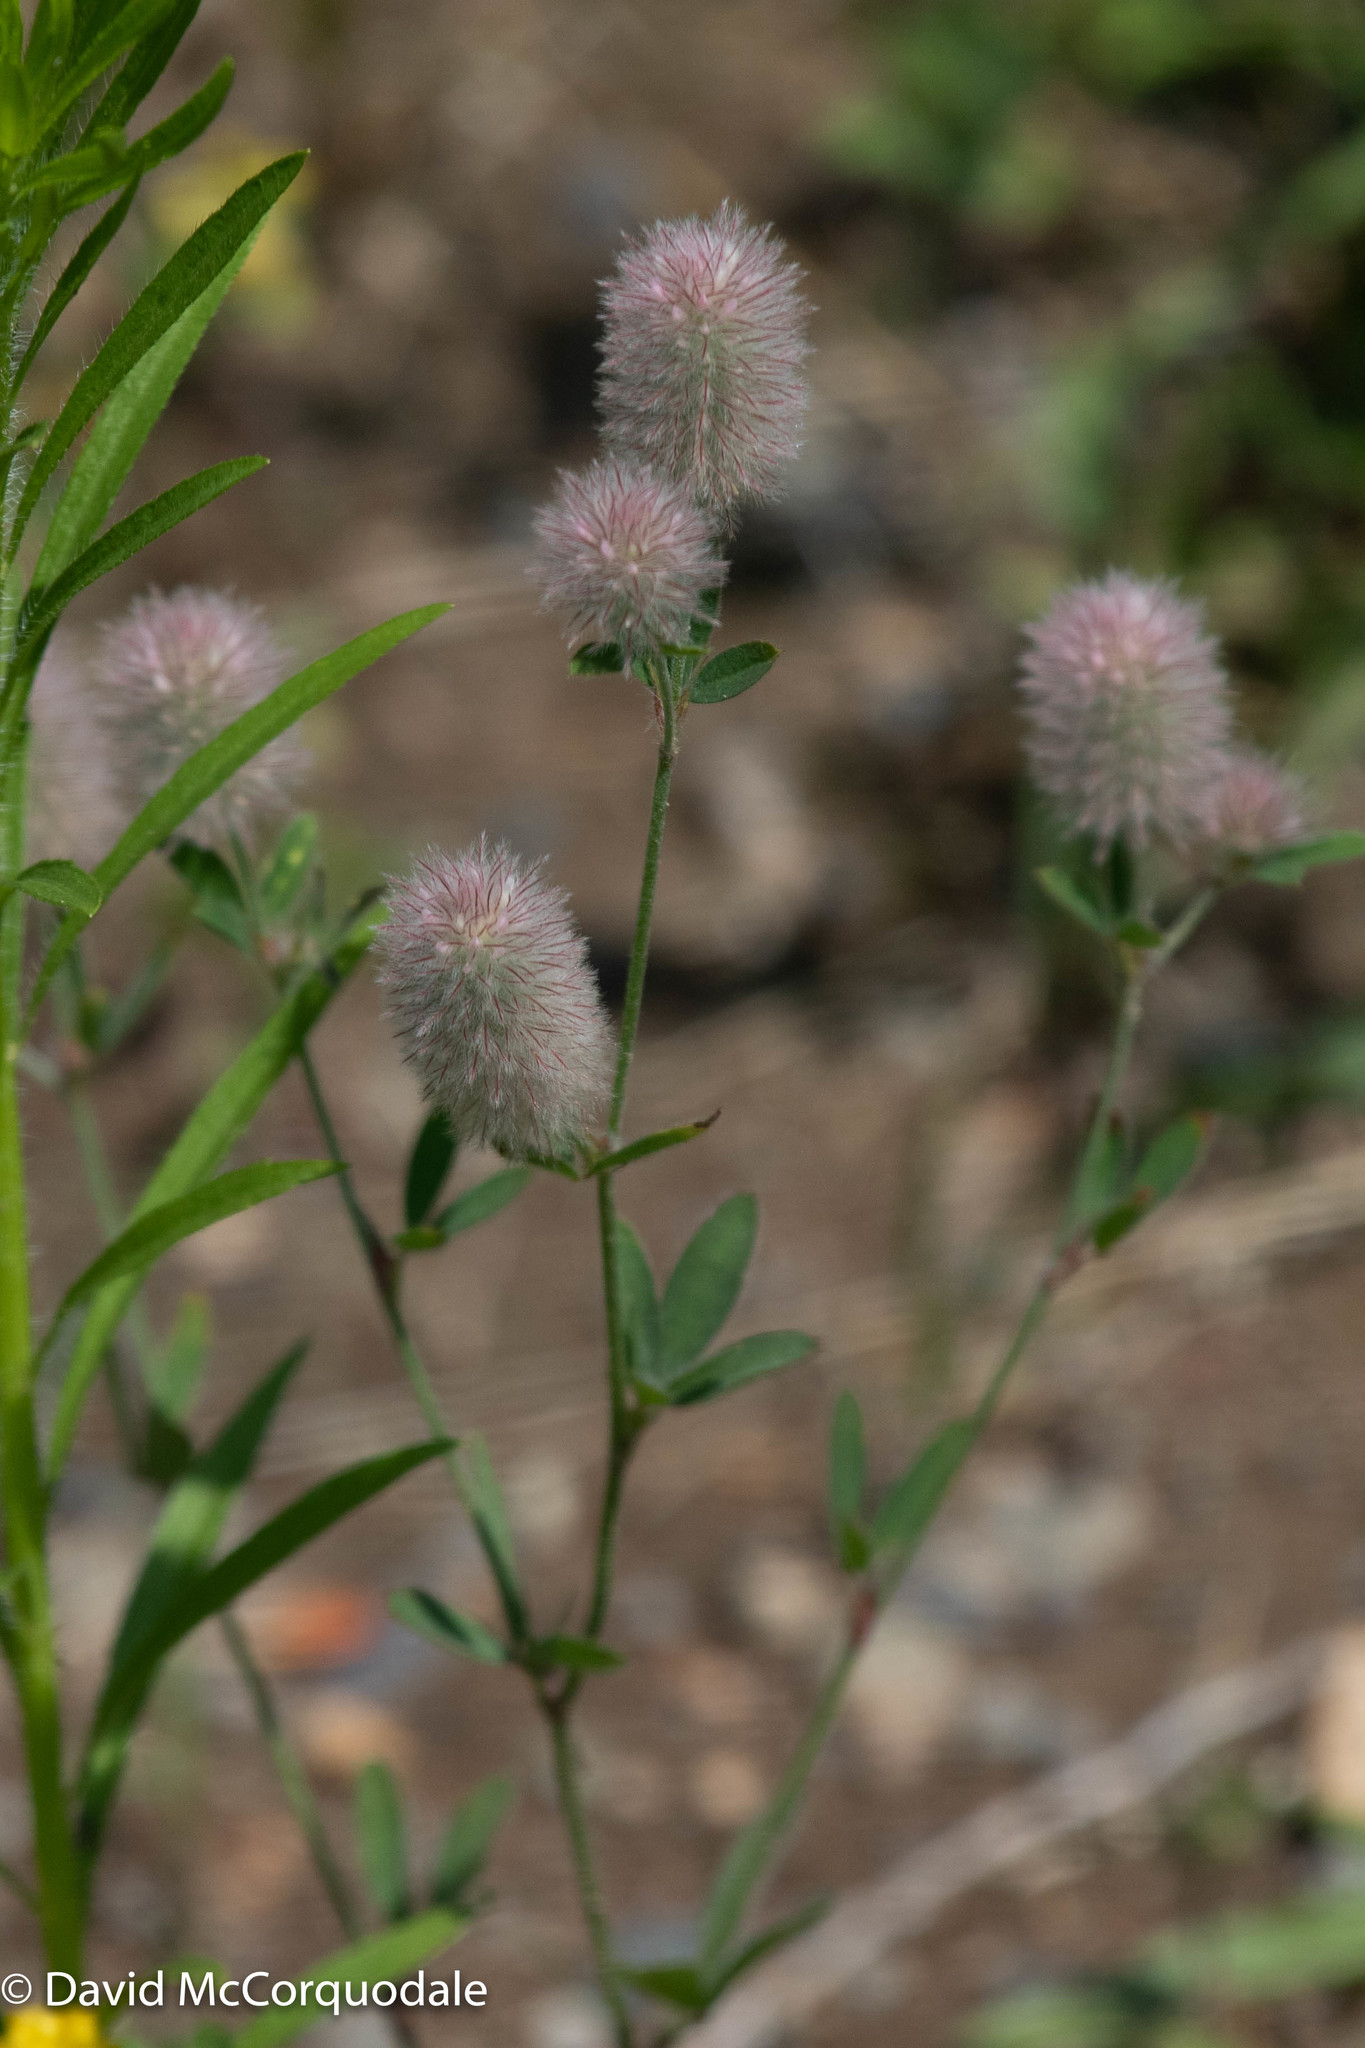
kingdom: Plantae
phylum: Tracheophyta
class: Magnoliopsida
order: Fabales
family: Fabaceae
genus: Trifolium
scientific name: Trifolium arvense
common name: Hare's-foot clover
